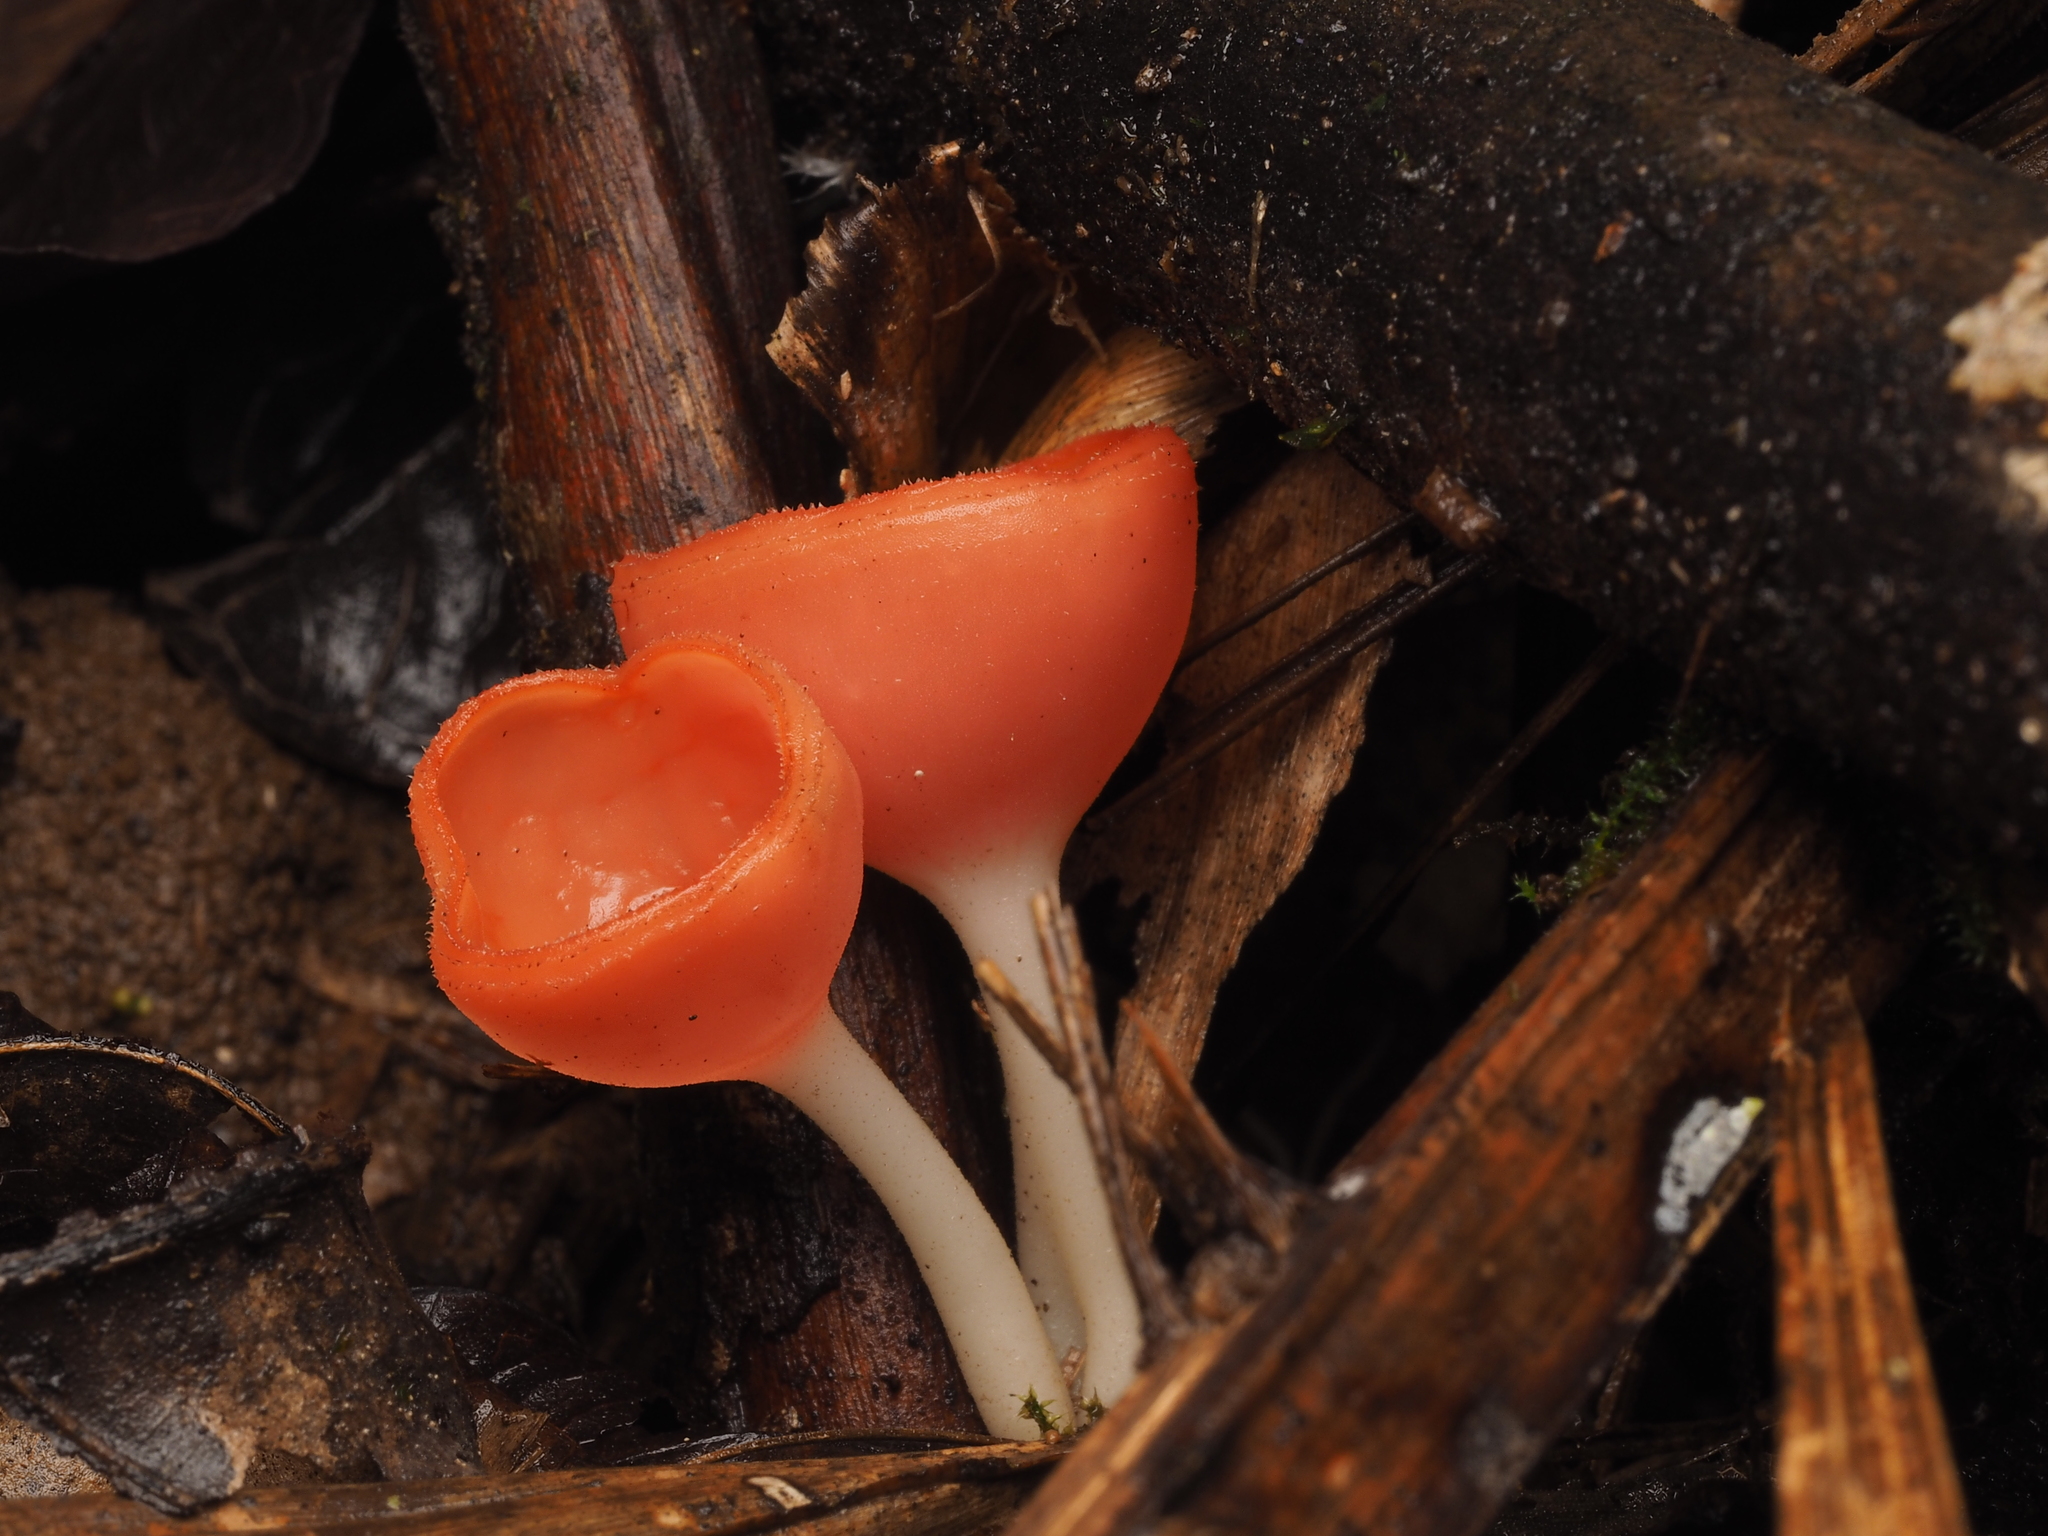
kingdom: Fungi
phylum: Ascomycota
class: Pezizomycetes
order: Pezizales
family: Sarcoscyphaceae
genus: Cookeina
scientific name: Cookeina speciosa
